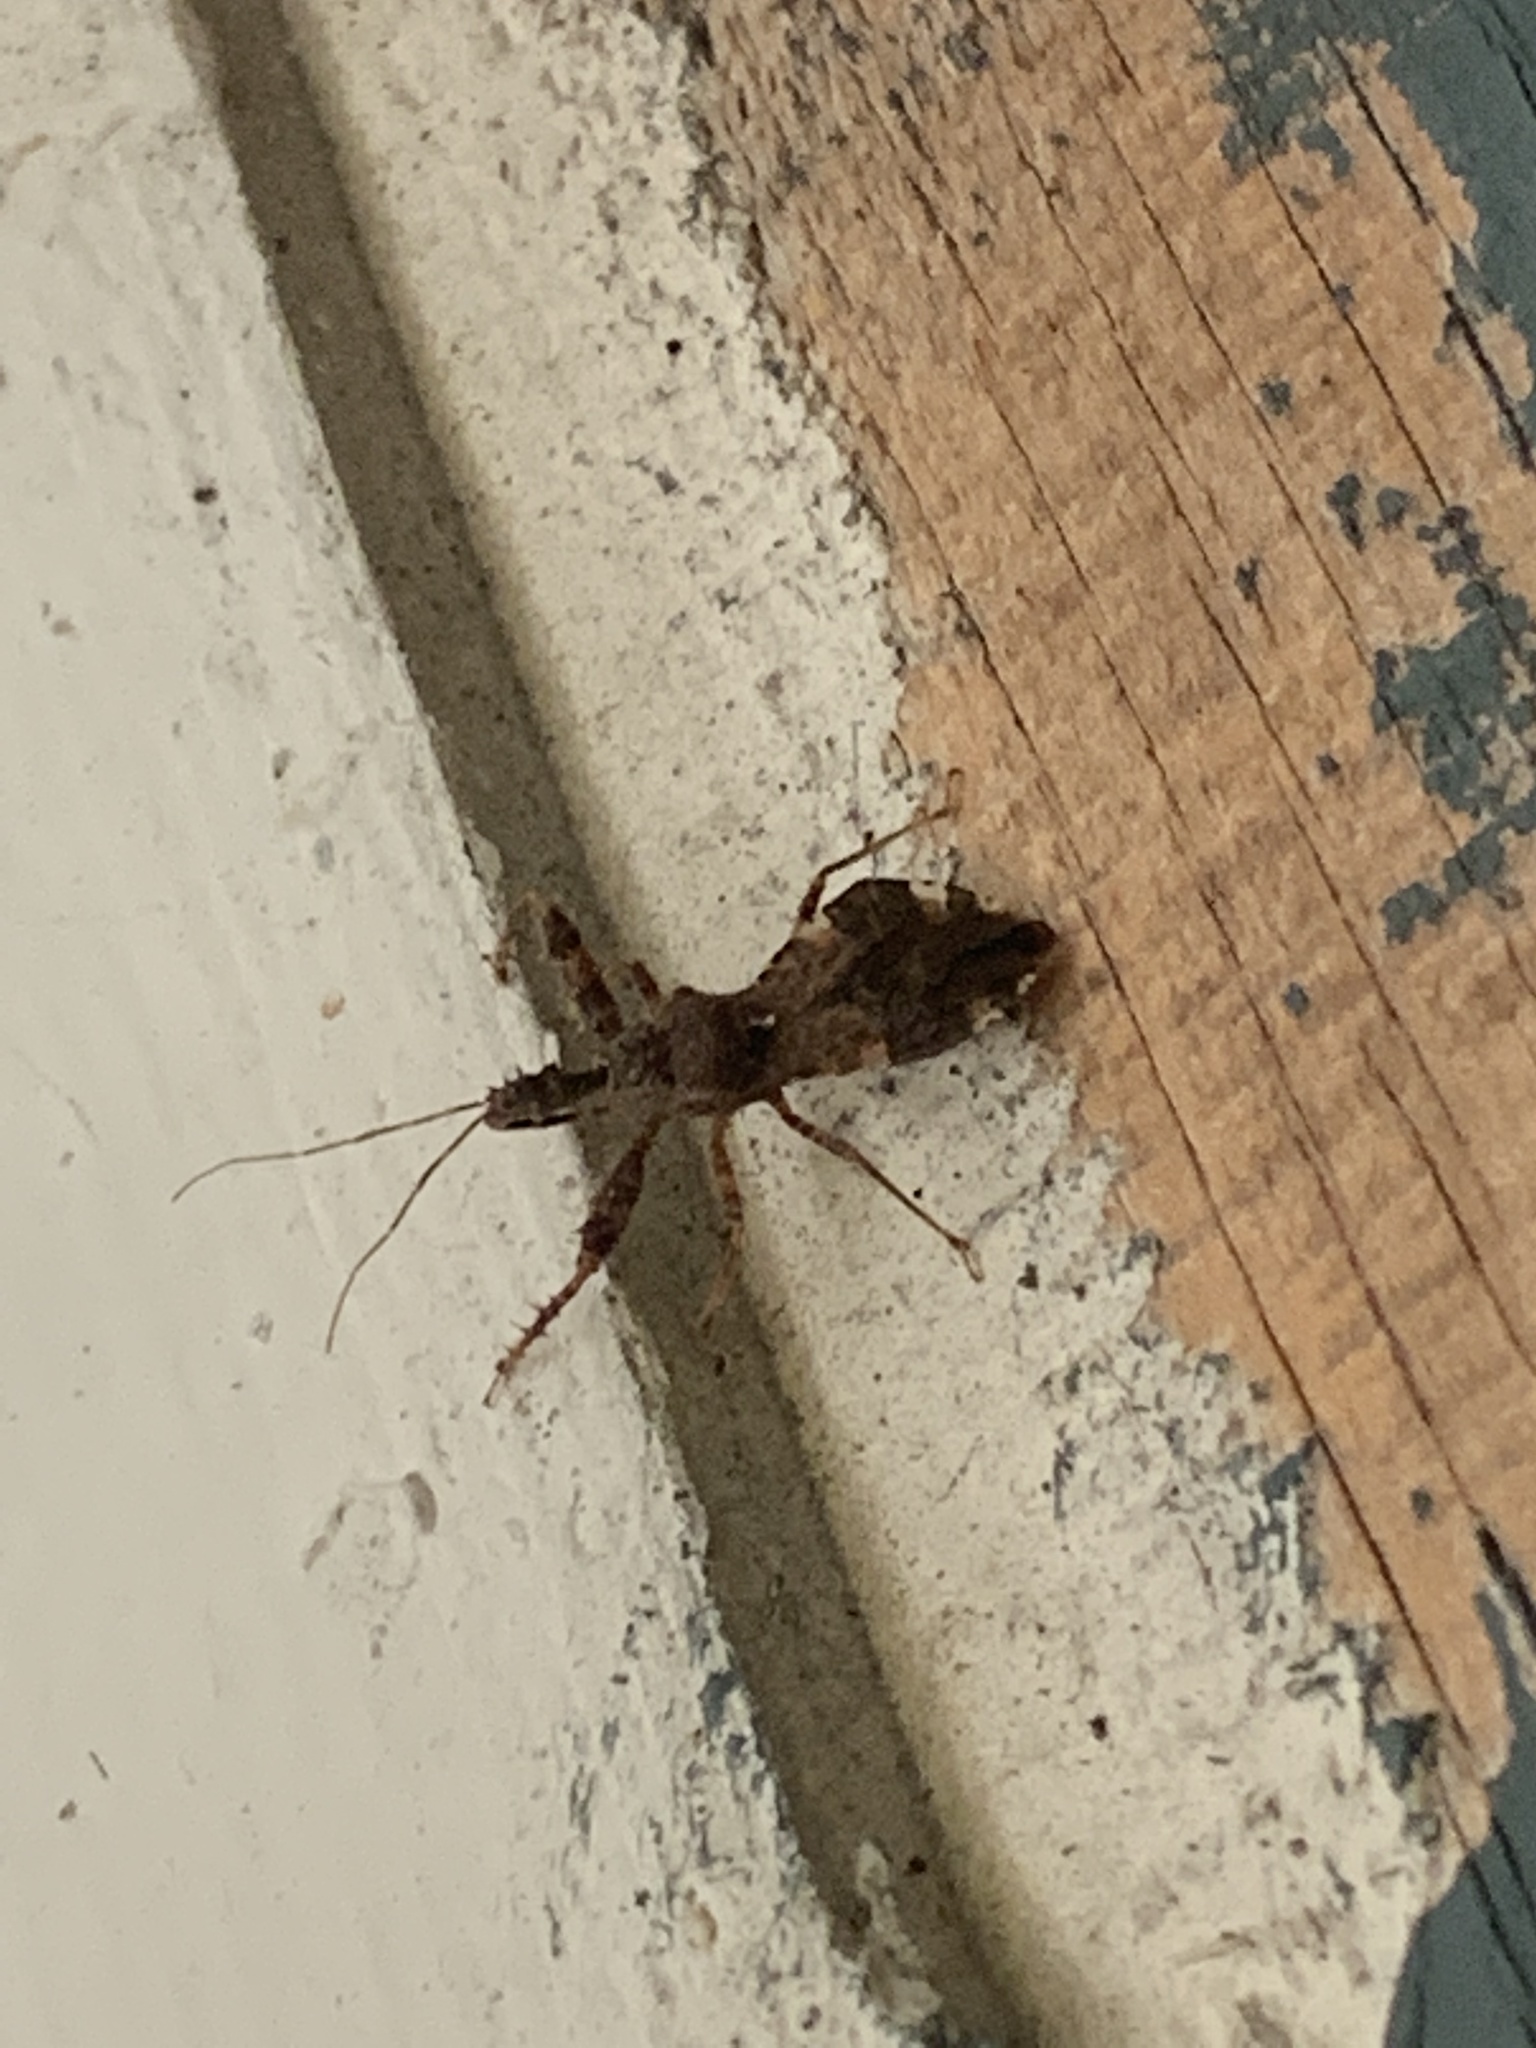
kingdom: Animalia
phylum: Arthropoda
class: Insecta
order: Hemiptera
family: Reduviidae
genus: Sinea
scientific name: Sinea spinipes
